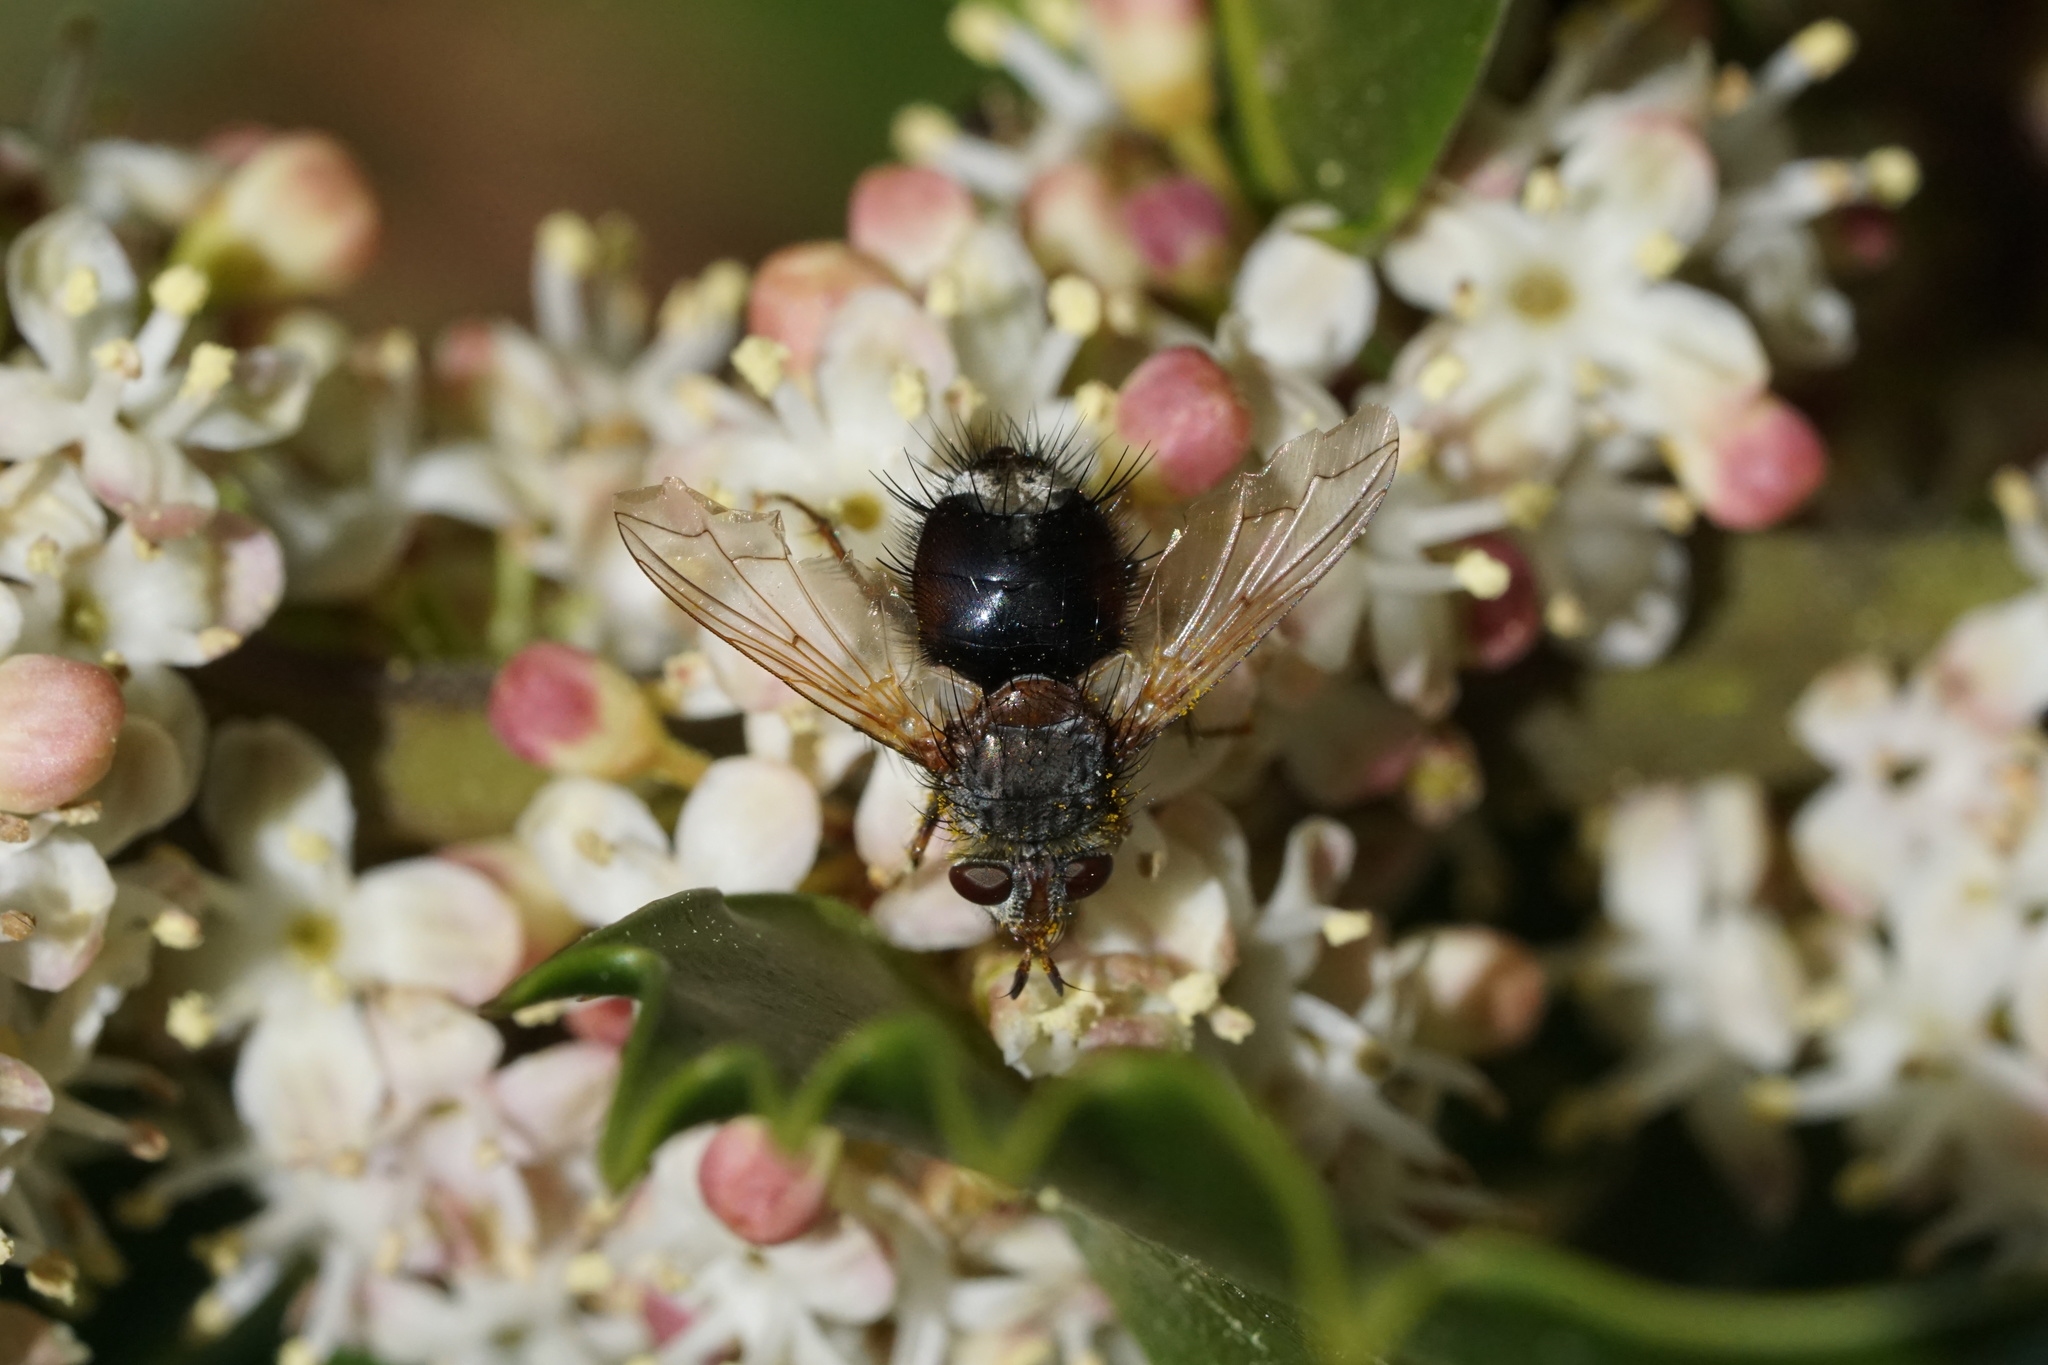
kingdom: Animalia
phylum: Arthropoda
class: Insecta
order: Diptera
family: Tachinidae
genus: Epalpus
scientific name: Epalpus signifer
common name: Early tachinid fly
